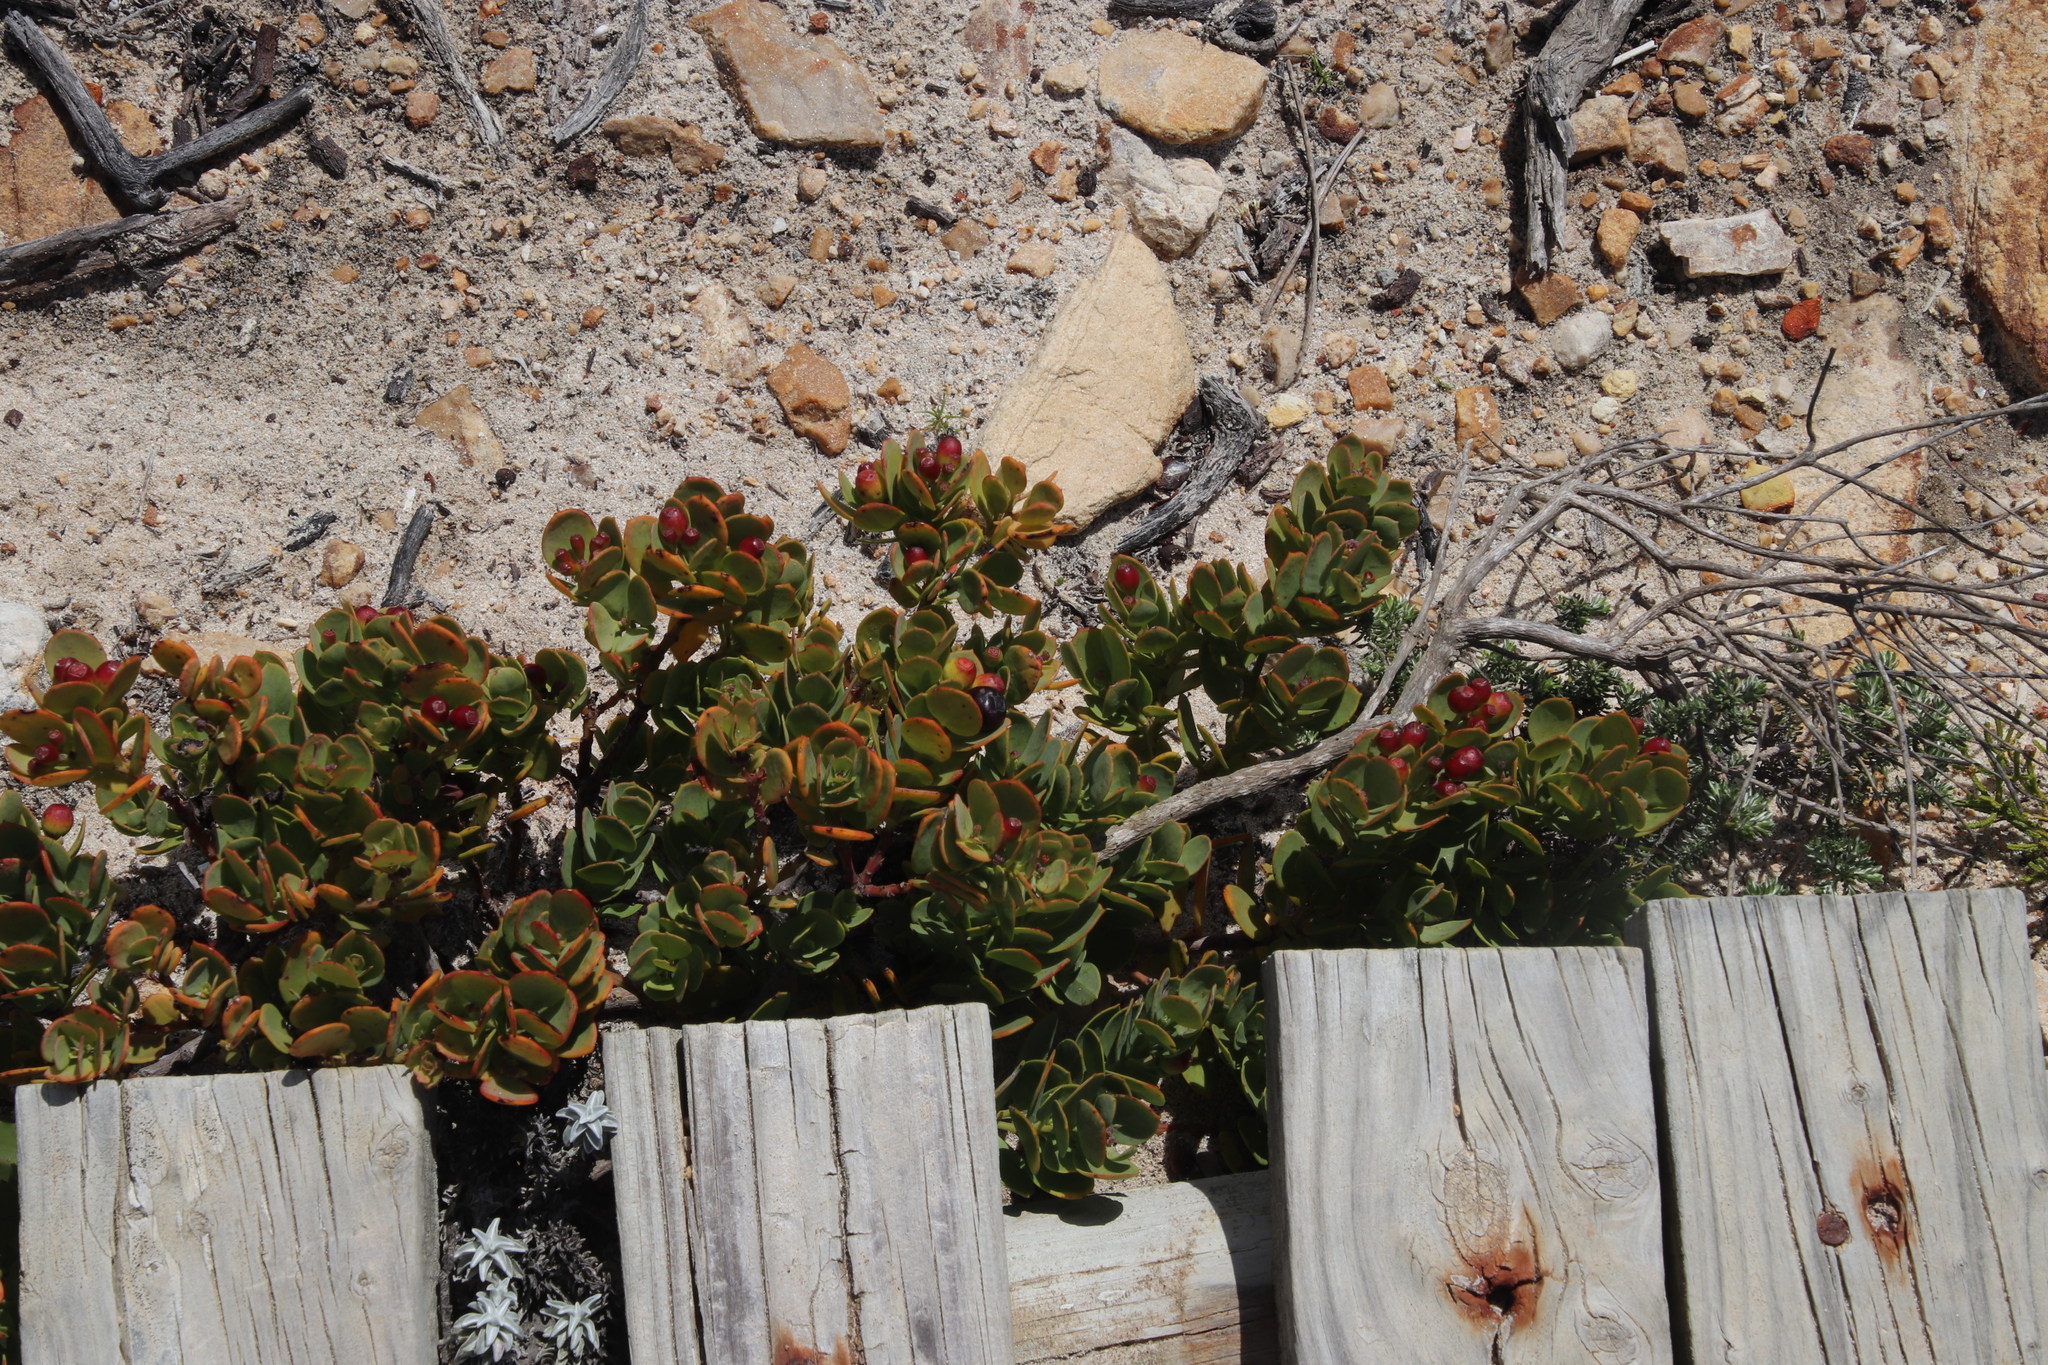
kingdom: Plantae
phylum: Tracheophyta
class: Magnoliopsida
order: Santalales
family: Santalaceae
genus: Osyris
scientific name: Osyris compressa
